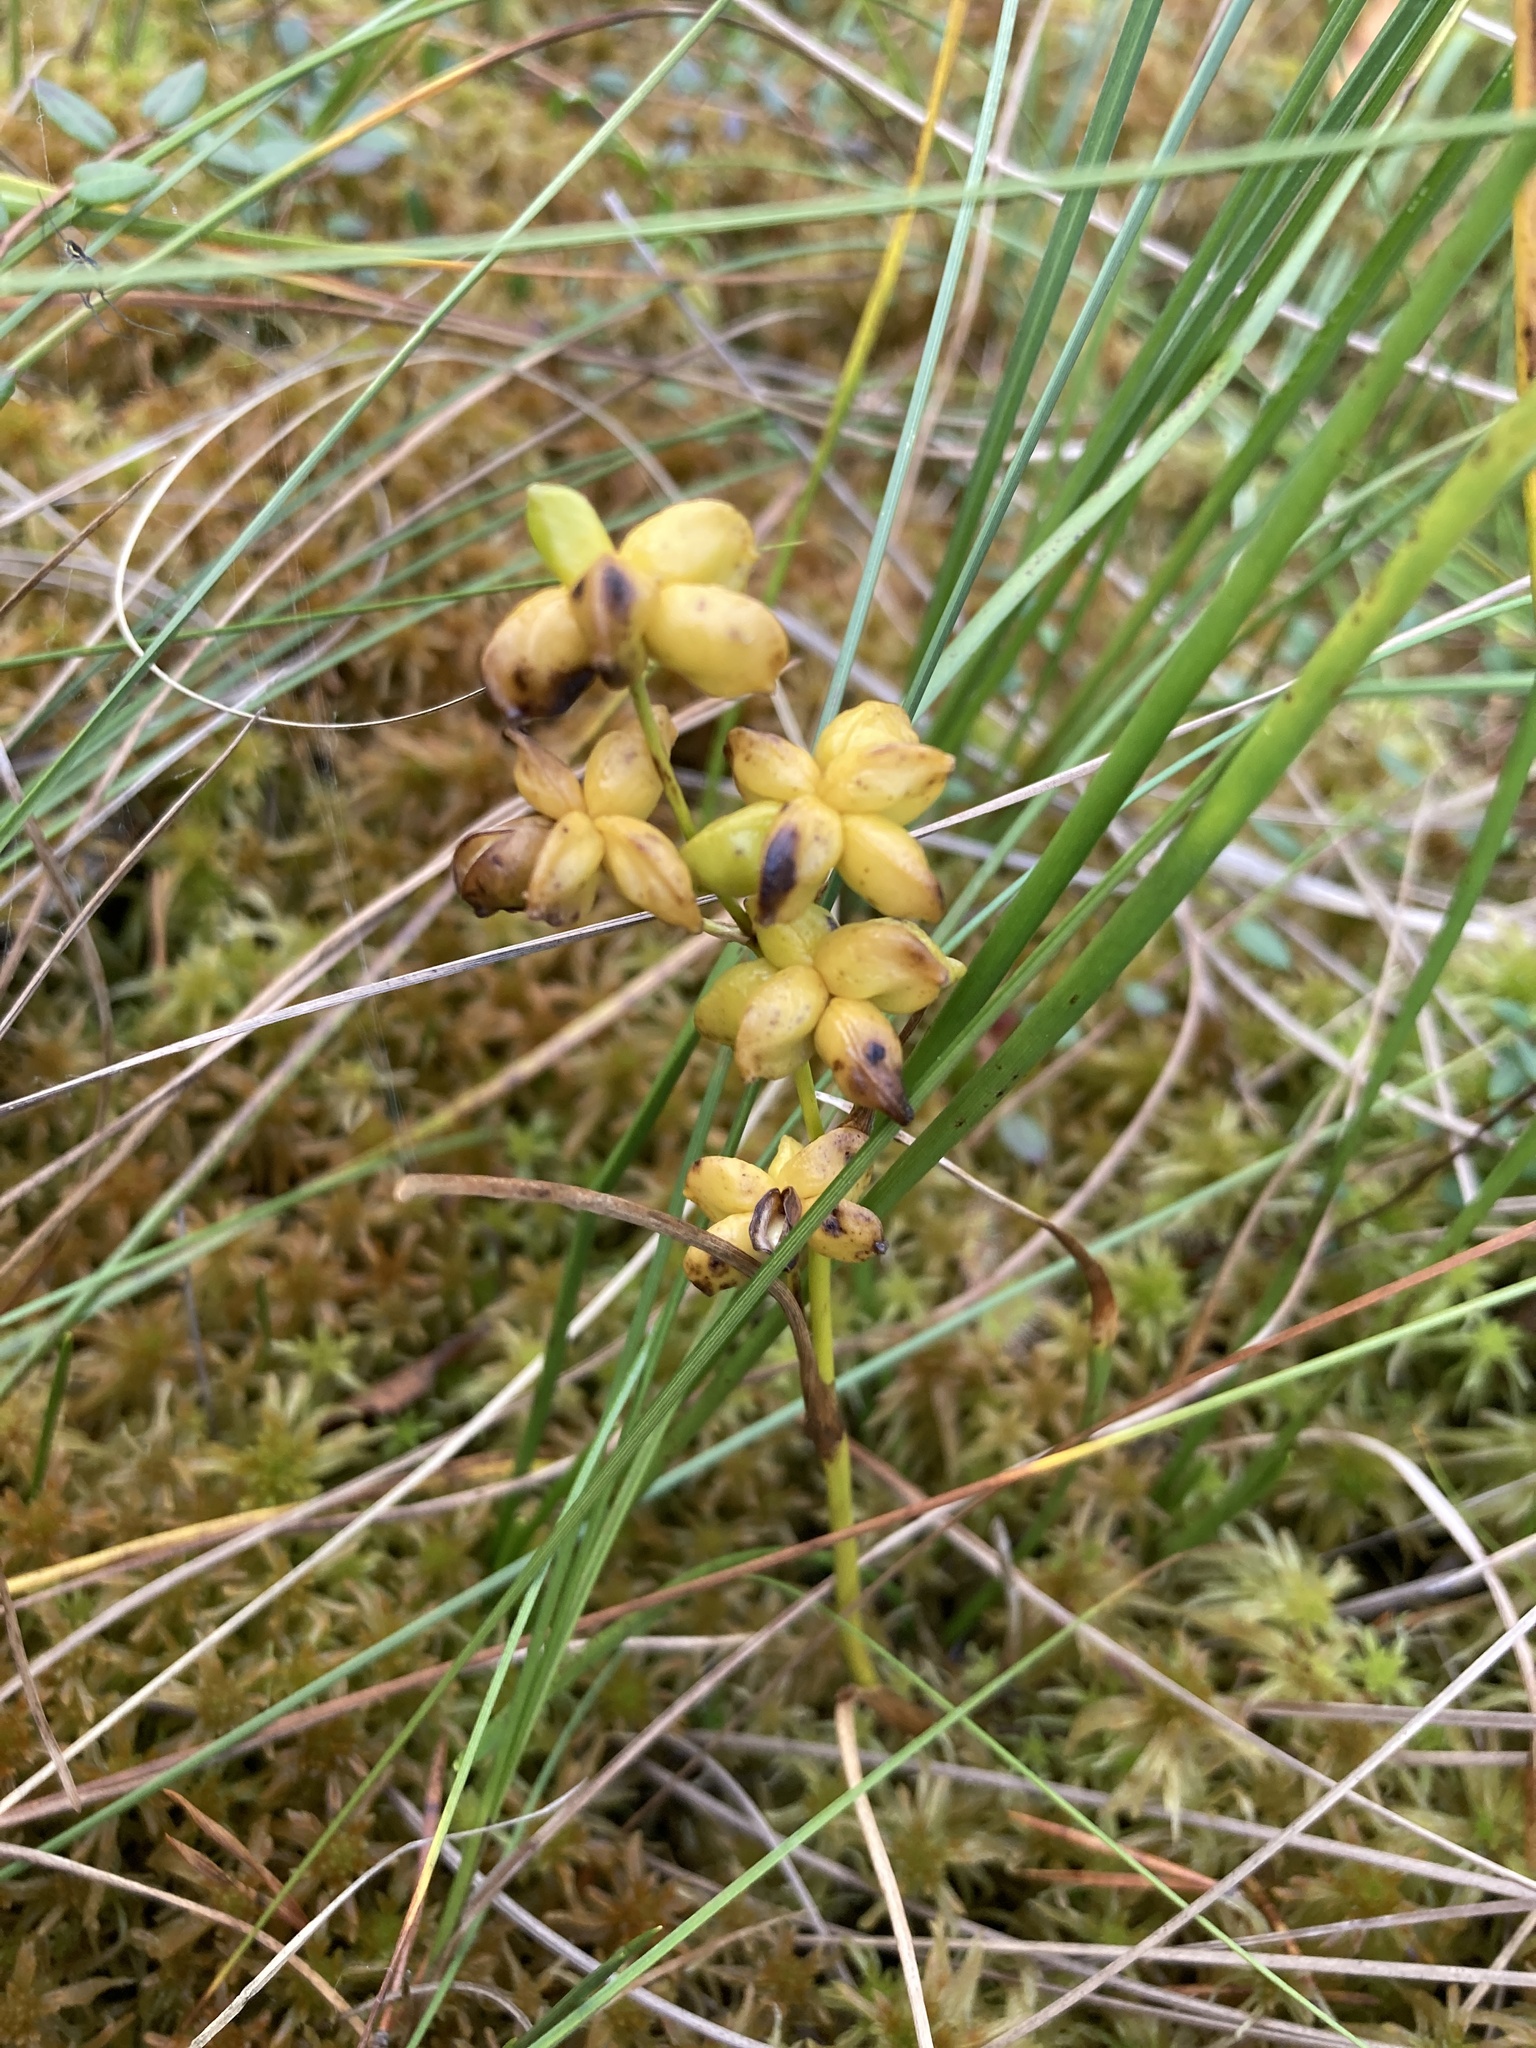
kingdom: Plantae
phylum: Tracheophyta
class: Liliopsida
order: Alismatales
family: Scheuchzeriaceae
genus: Scheuchzeria
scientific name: Scheuchzeria palustris
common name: Rannoch-rush
